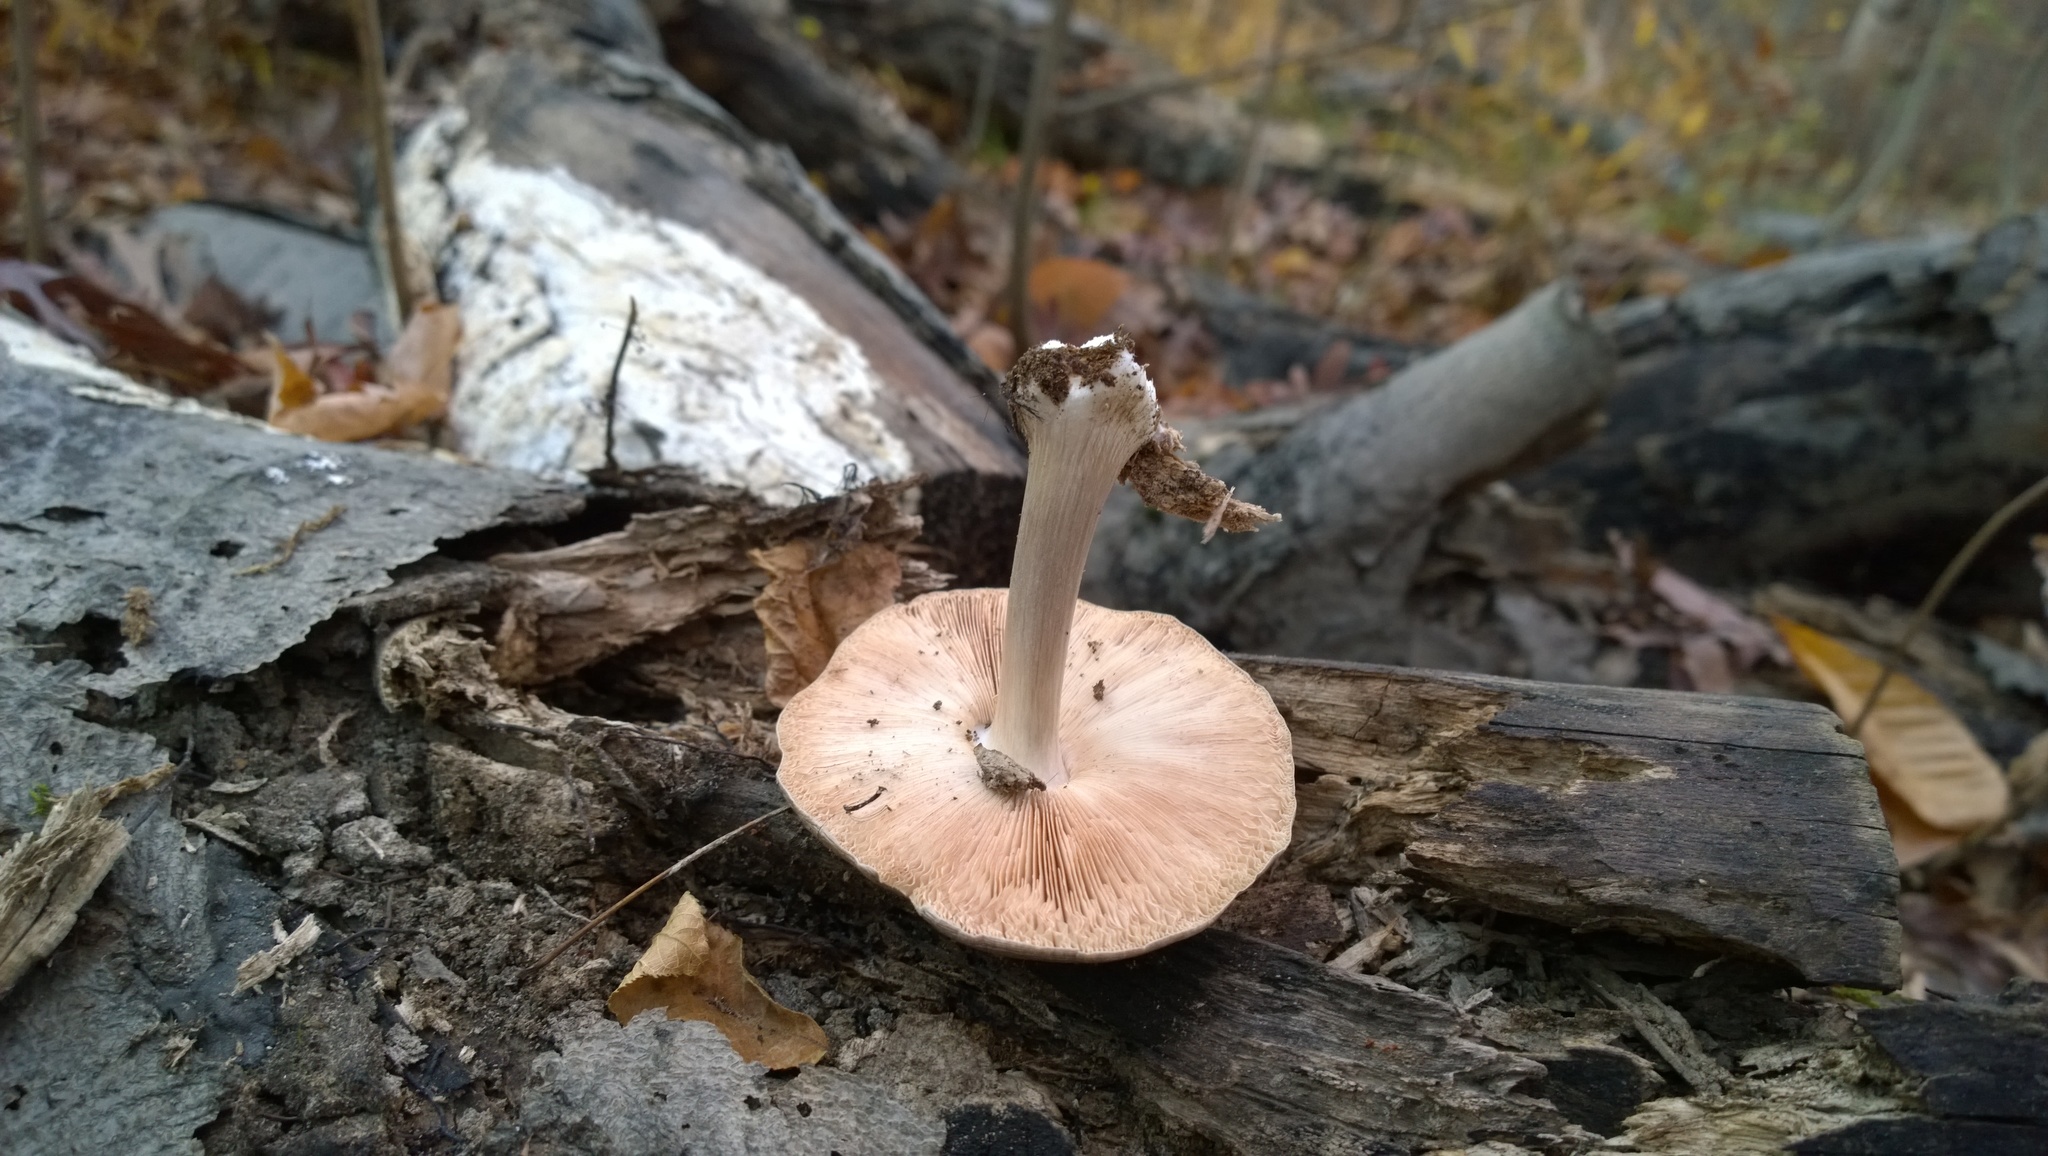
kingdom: Fungi
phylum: Basidiomycota
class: Agaricomycetes
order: Agaricales
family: Pluteaceae
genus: Pluteus
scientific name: Pluteus cervinus
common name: Deer shield
